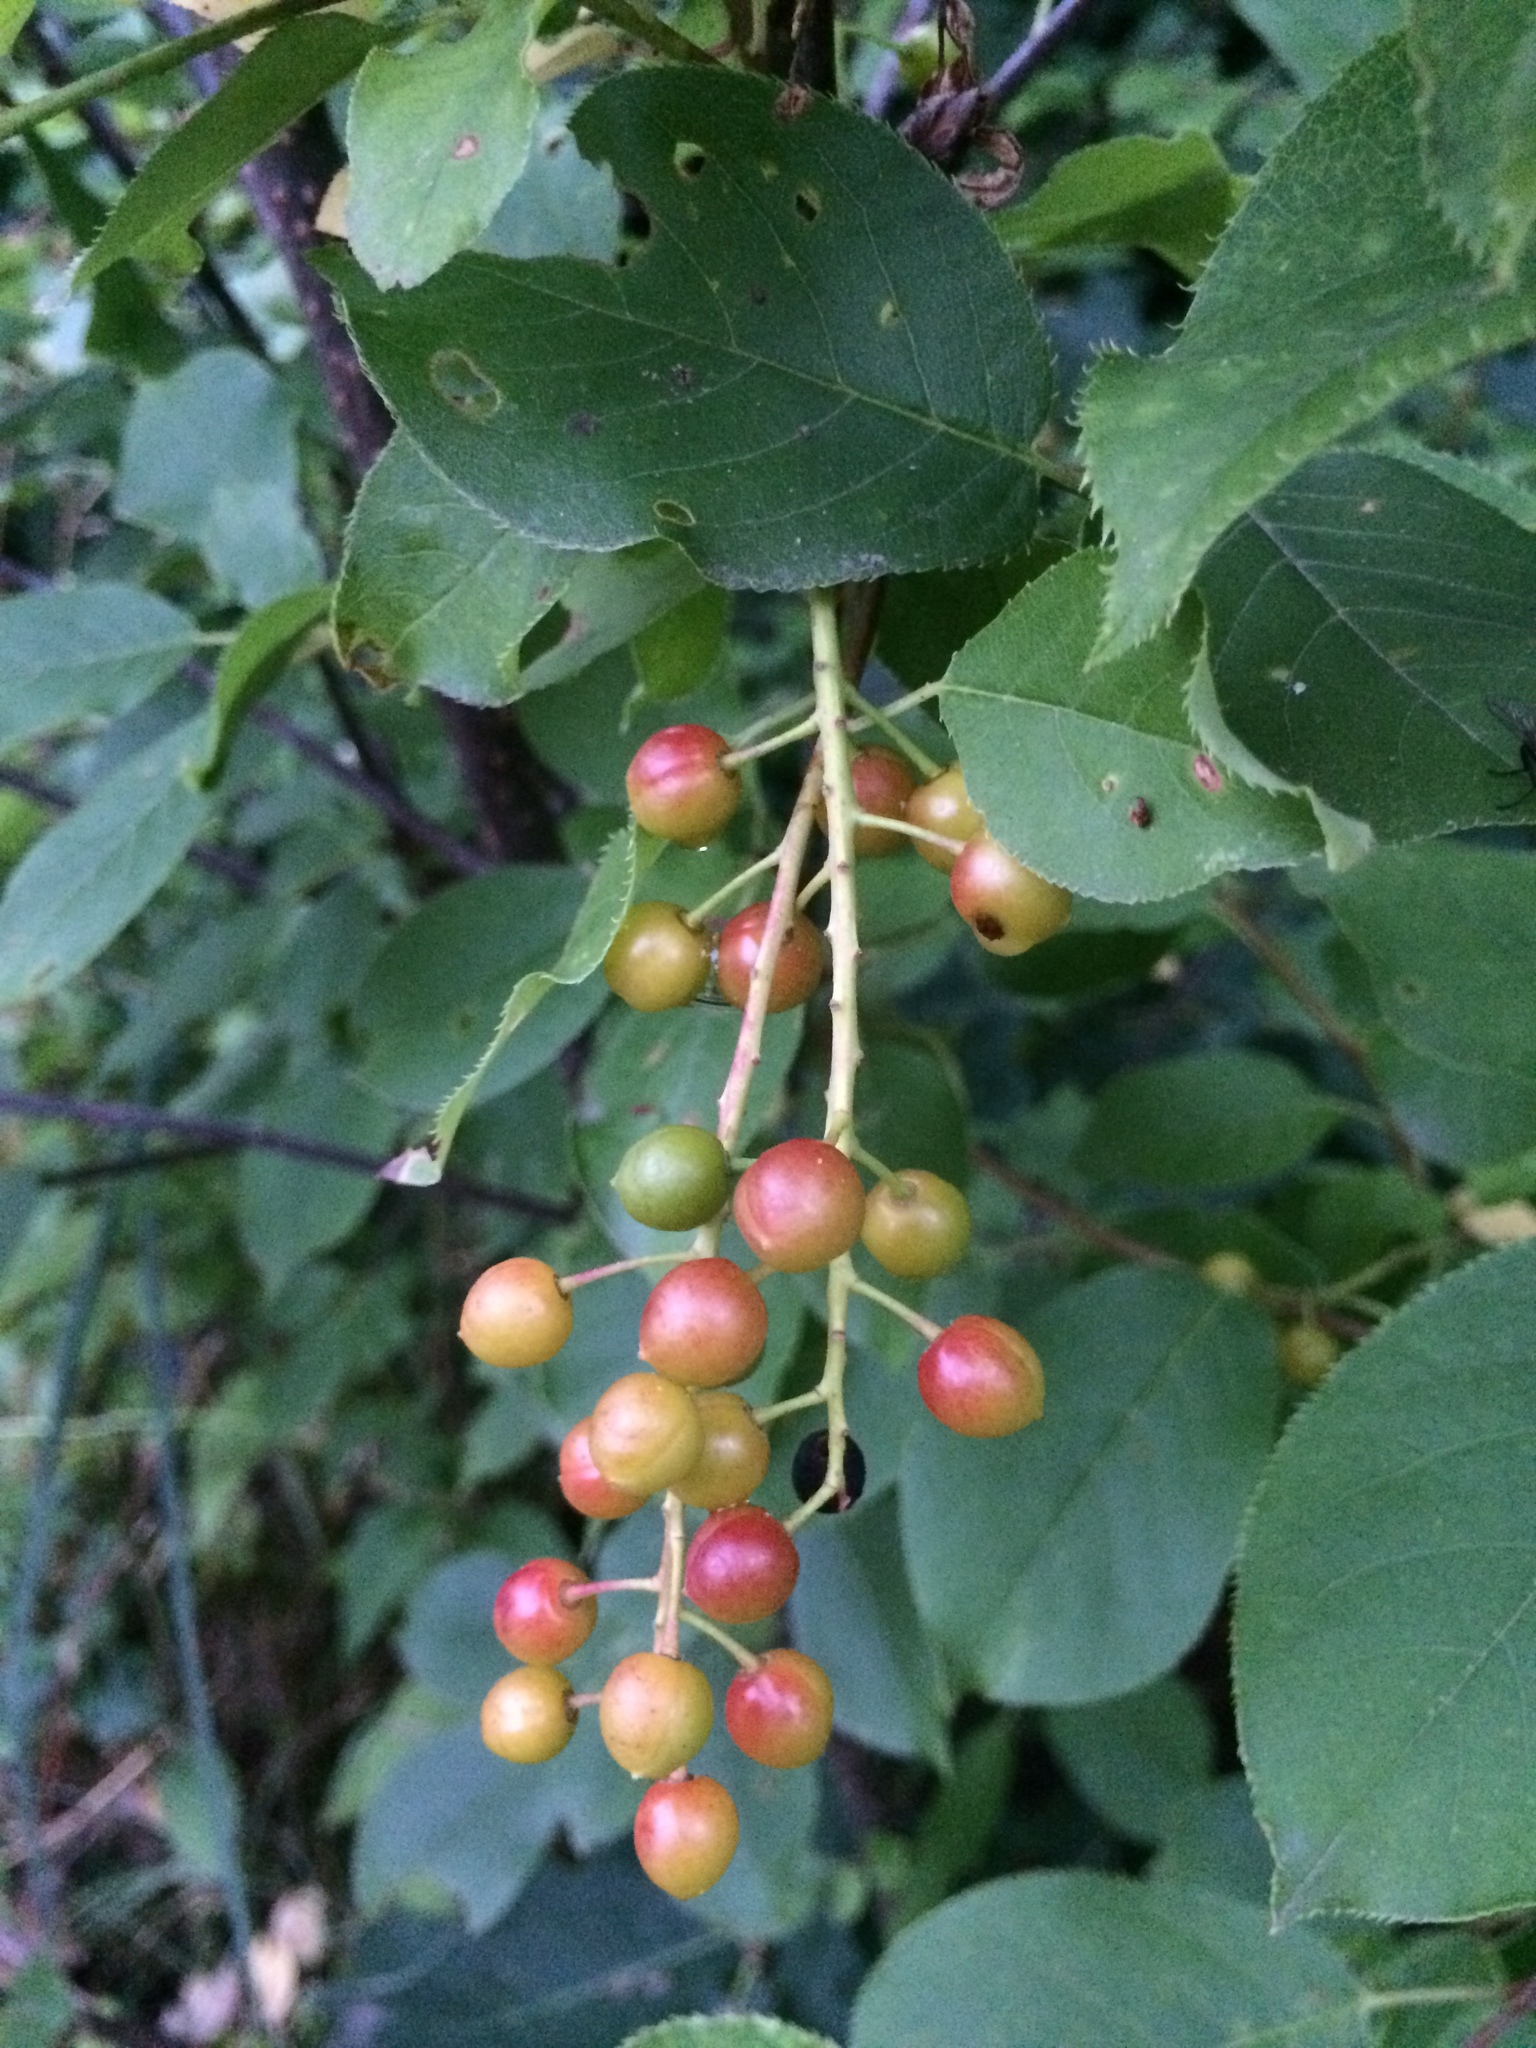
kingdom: Plantae
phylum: Tracheophyta
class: Magnoliopsida
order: Rosales
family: Rosaceae
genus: Prunus
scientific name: Prunus virginiana
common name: Chokecherry
